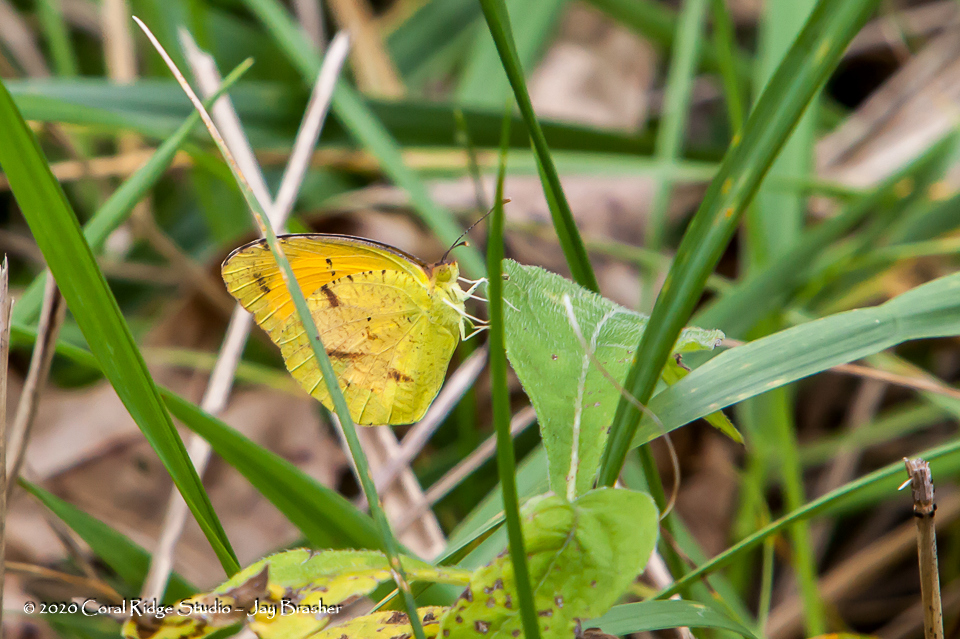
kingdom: Animalia
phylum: Arthropoda
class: Insecta
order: Lepidoptera
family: Pieridae
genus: Abaeis
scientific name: Abaeis nicippe
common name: Sleepy orange
